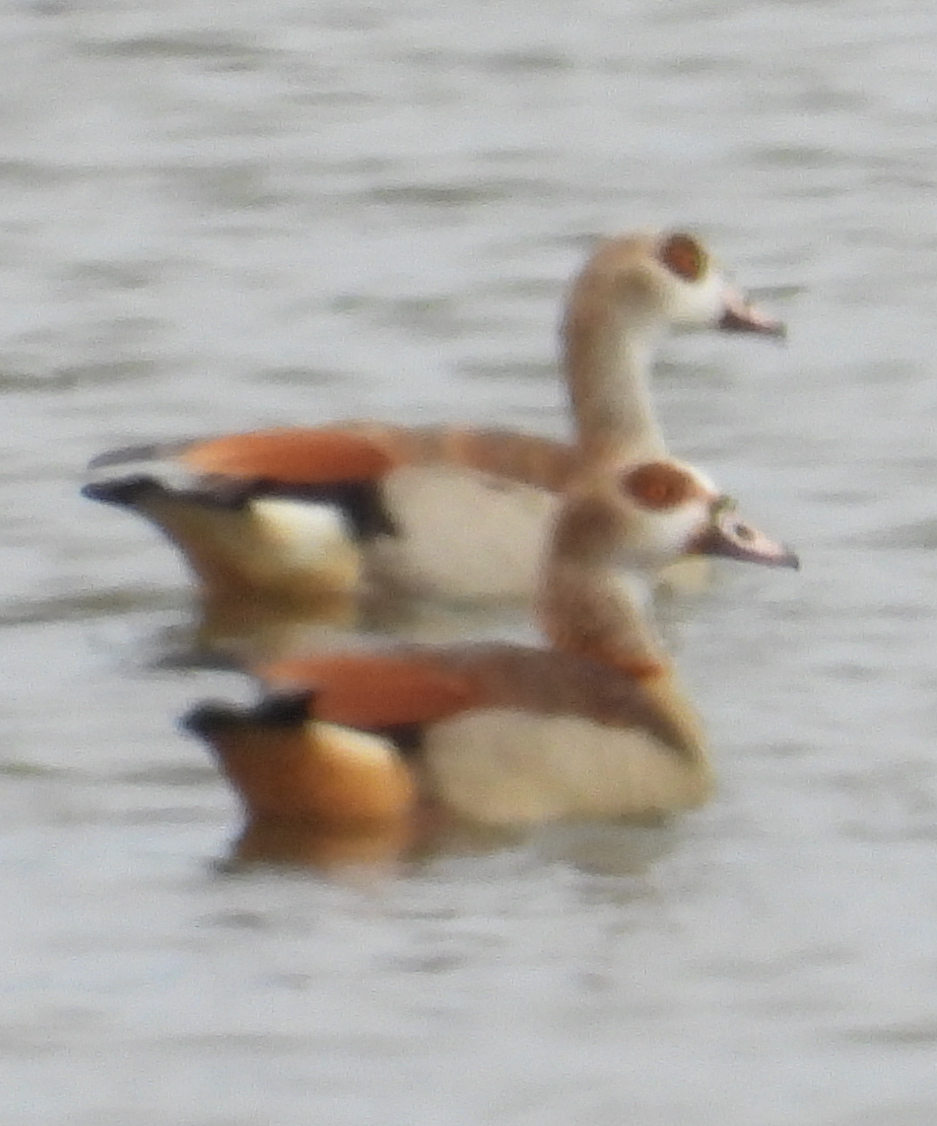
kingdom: Animalia
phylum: Chordata
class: Aves
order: Anseriformes
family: Anatidae
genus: Alopochen
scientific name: Alopochen aegyptiaca
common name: Egyptian goose
